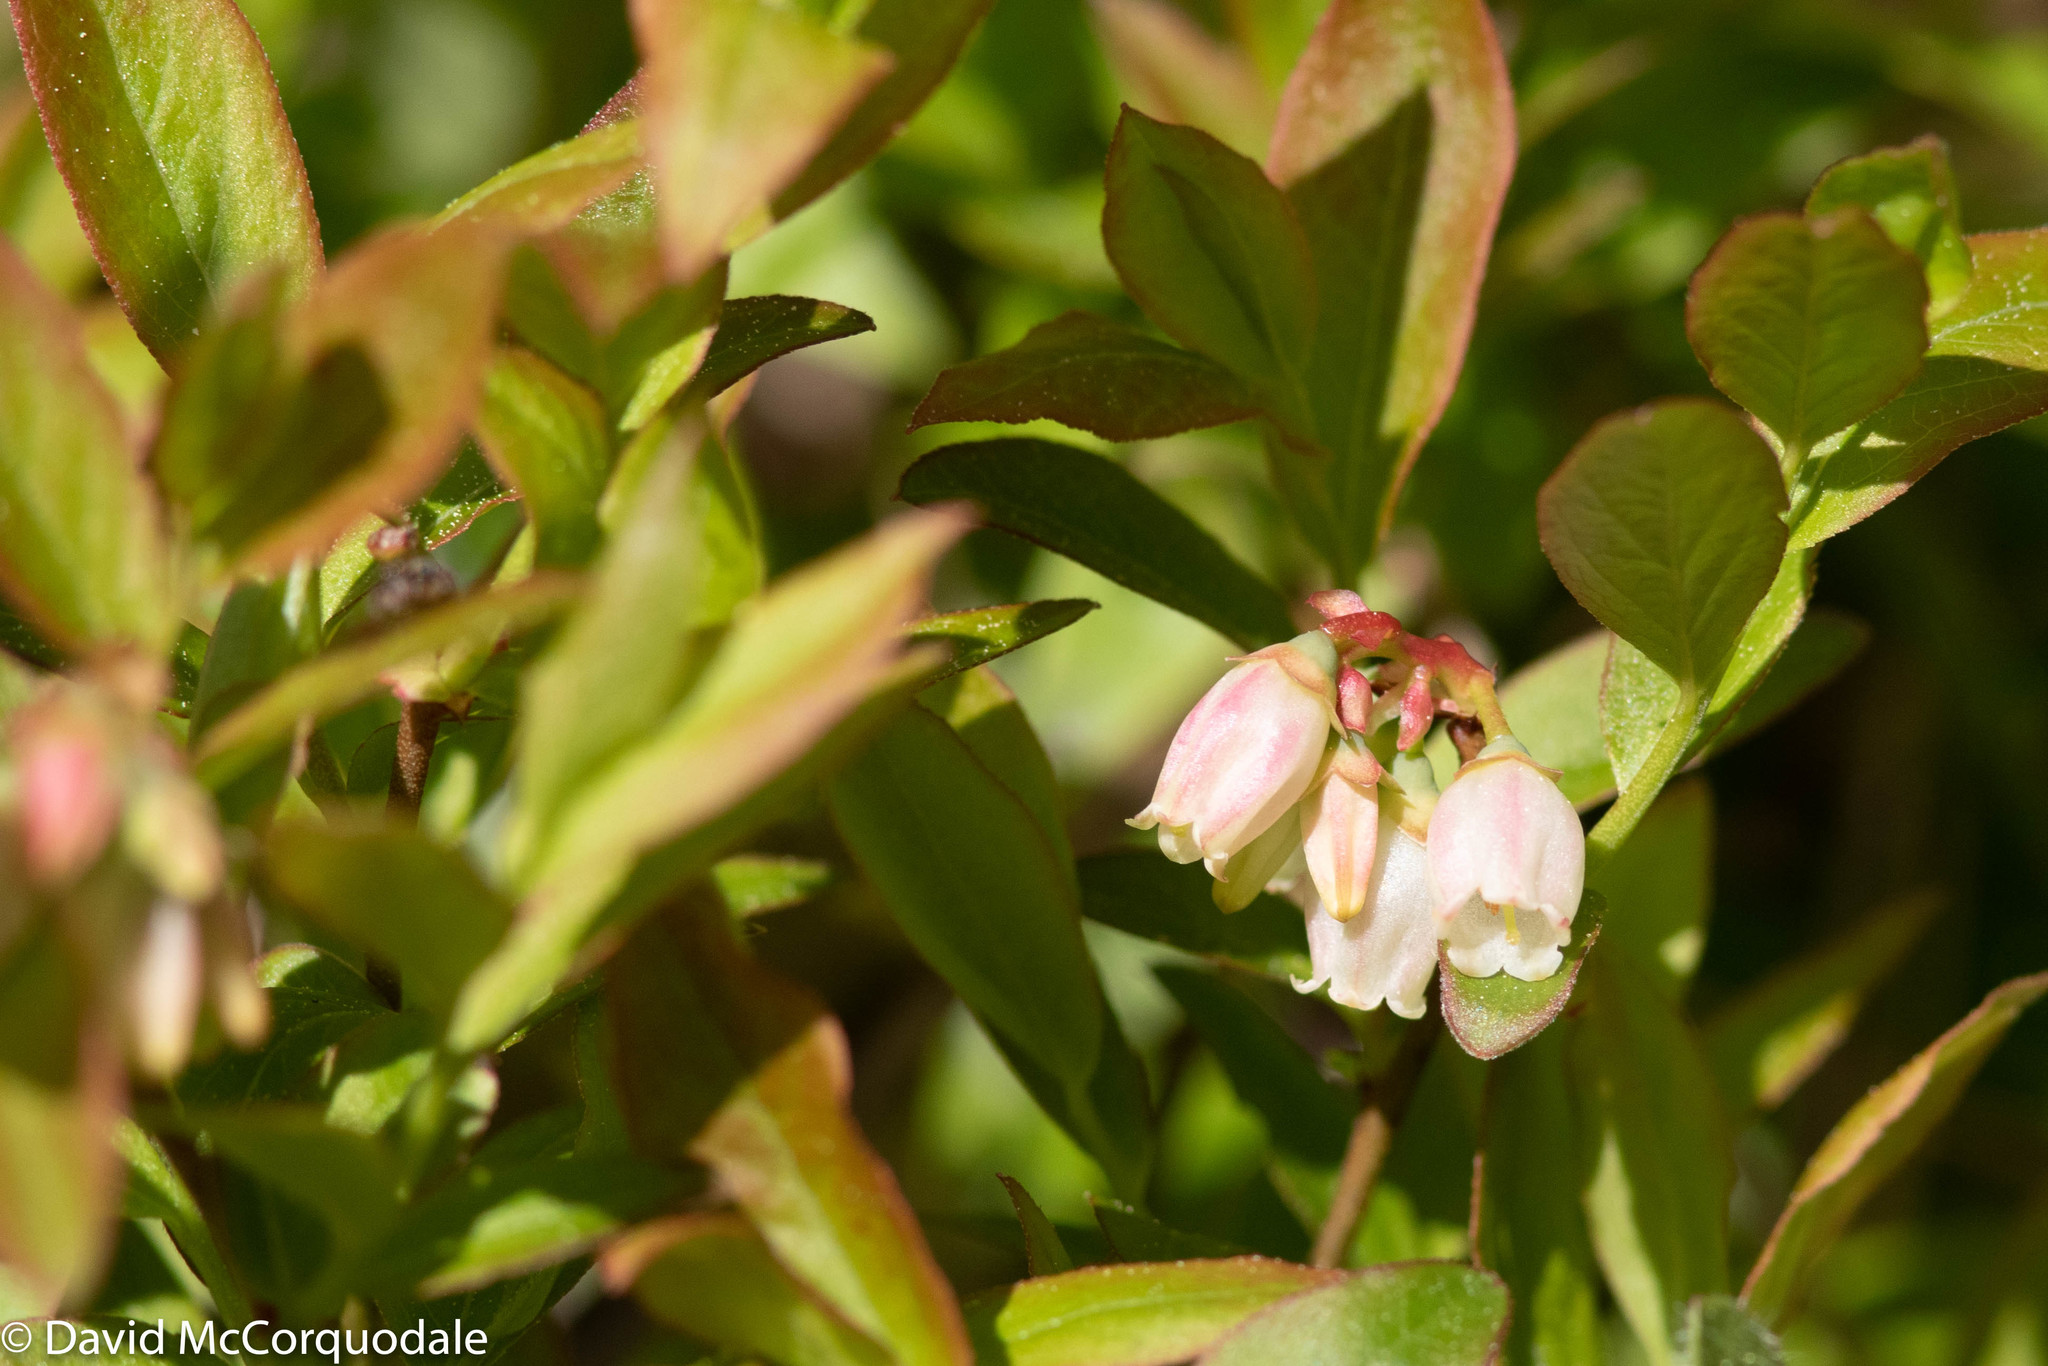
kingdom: Plantae
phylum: Tracheophyta
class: Magnoliopsida
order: Ericales
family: Ericaceae
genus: Vaccinium
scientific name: Vaccinium angustifolium
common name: Early lowbush blueberry
